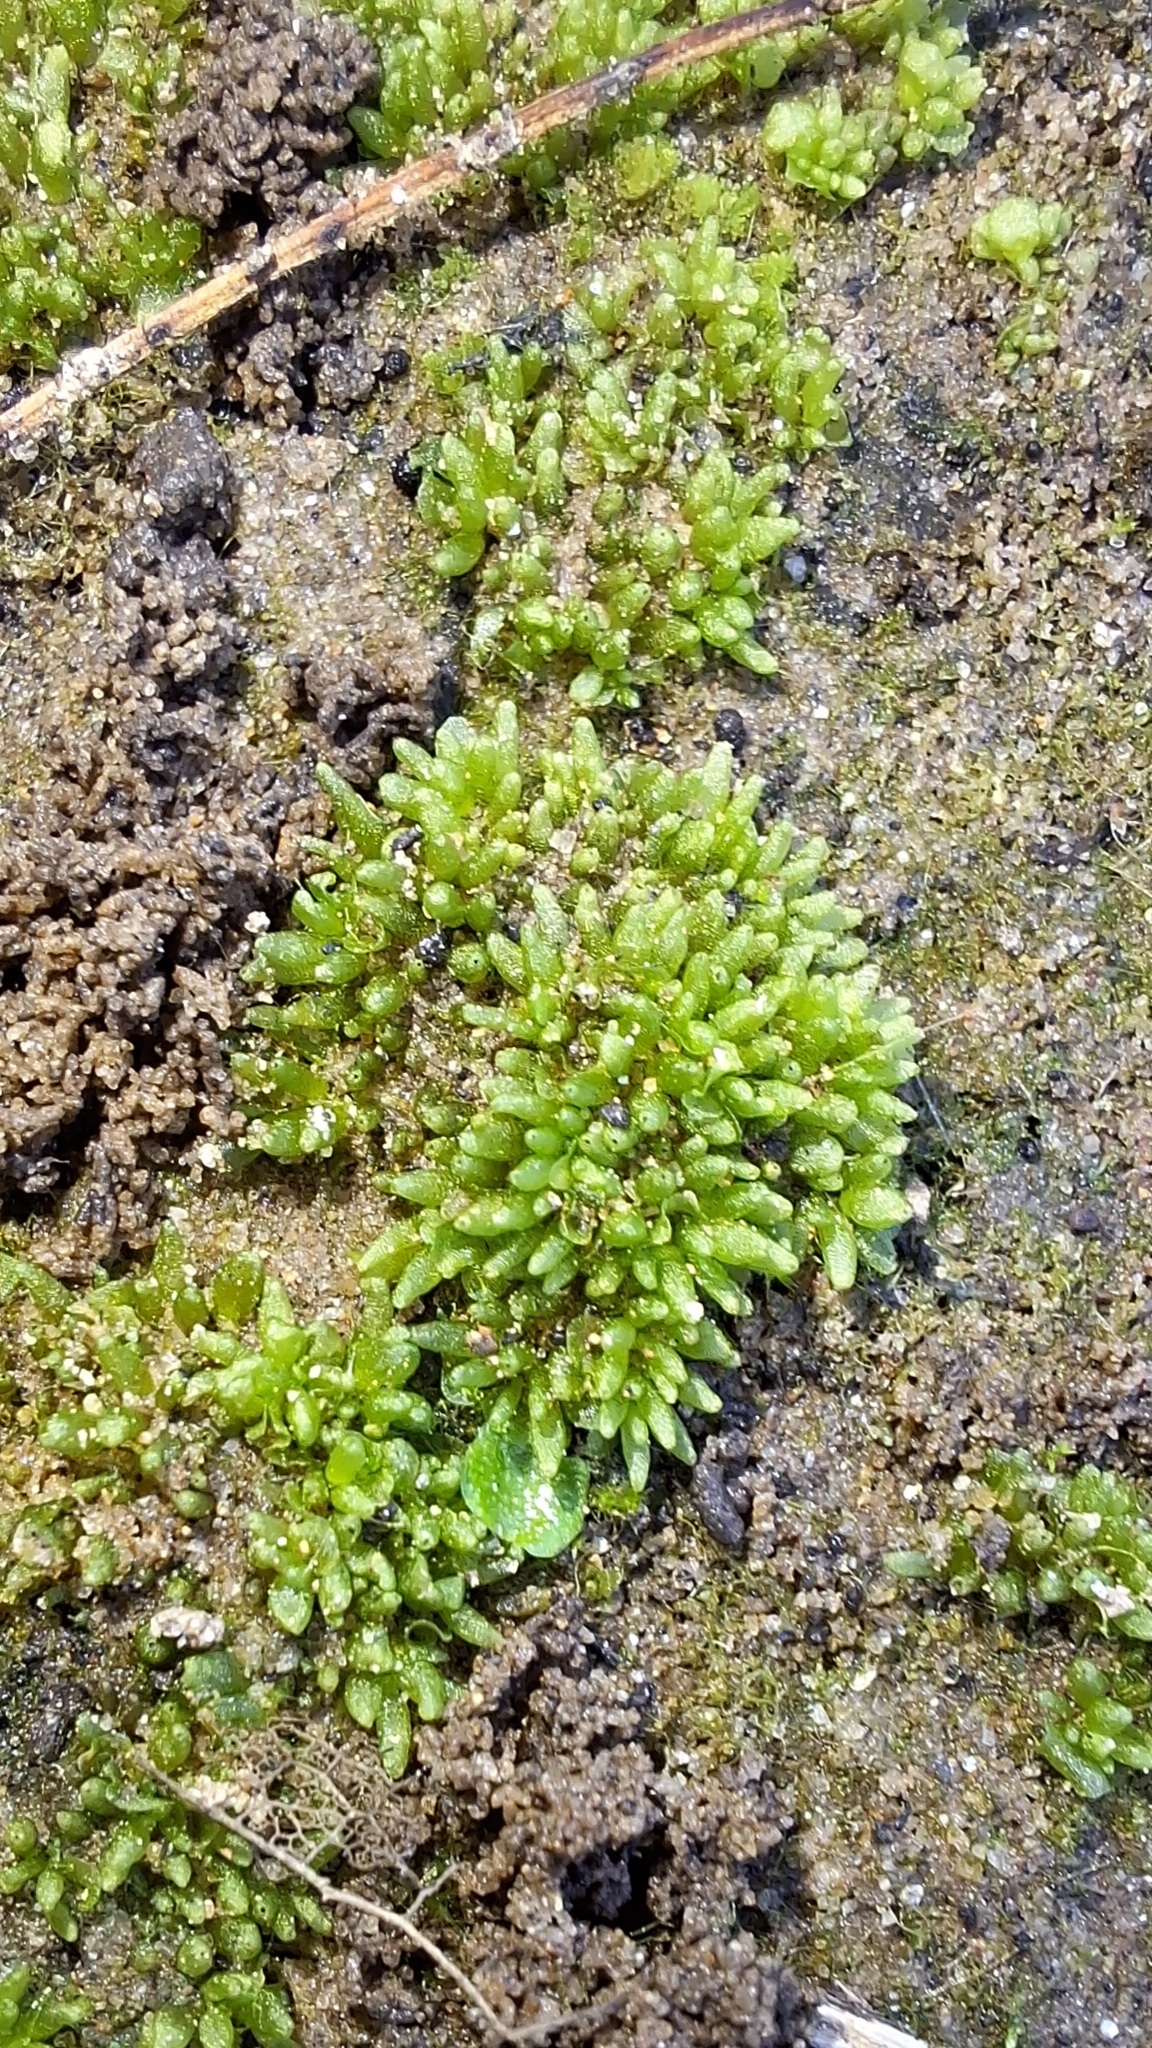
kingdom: Plantae
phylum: Marchantiophyta
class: Marchantiopsida
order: Sphaerocarpales
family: Sphaerocarpaceae
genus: Sphaerocarpos
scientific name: Sphaerocarpos texanus
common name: Texas balloonwort
